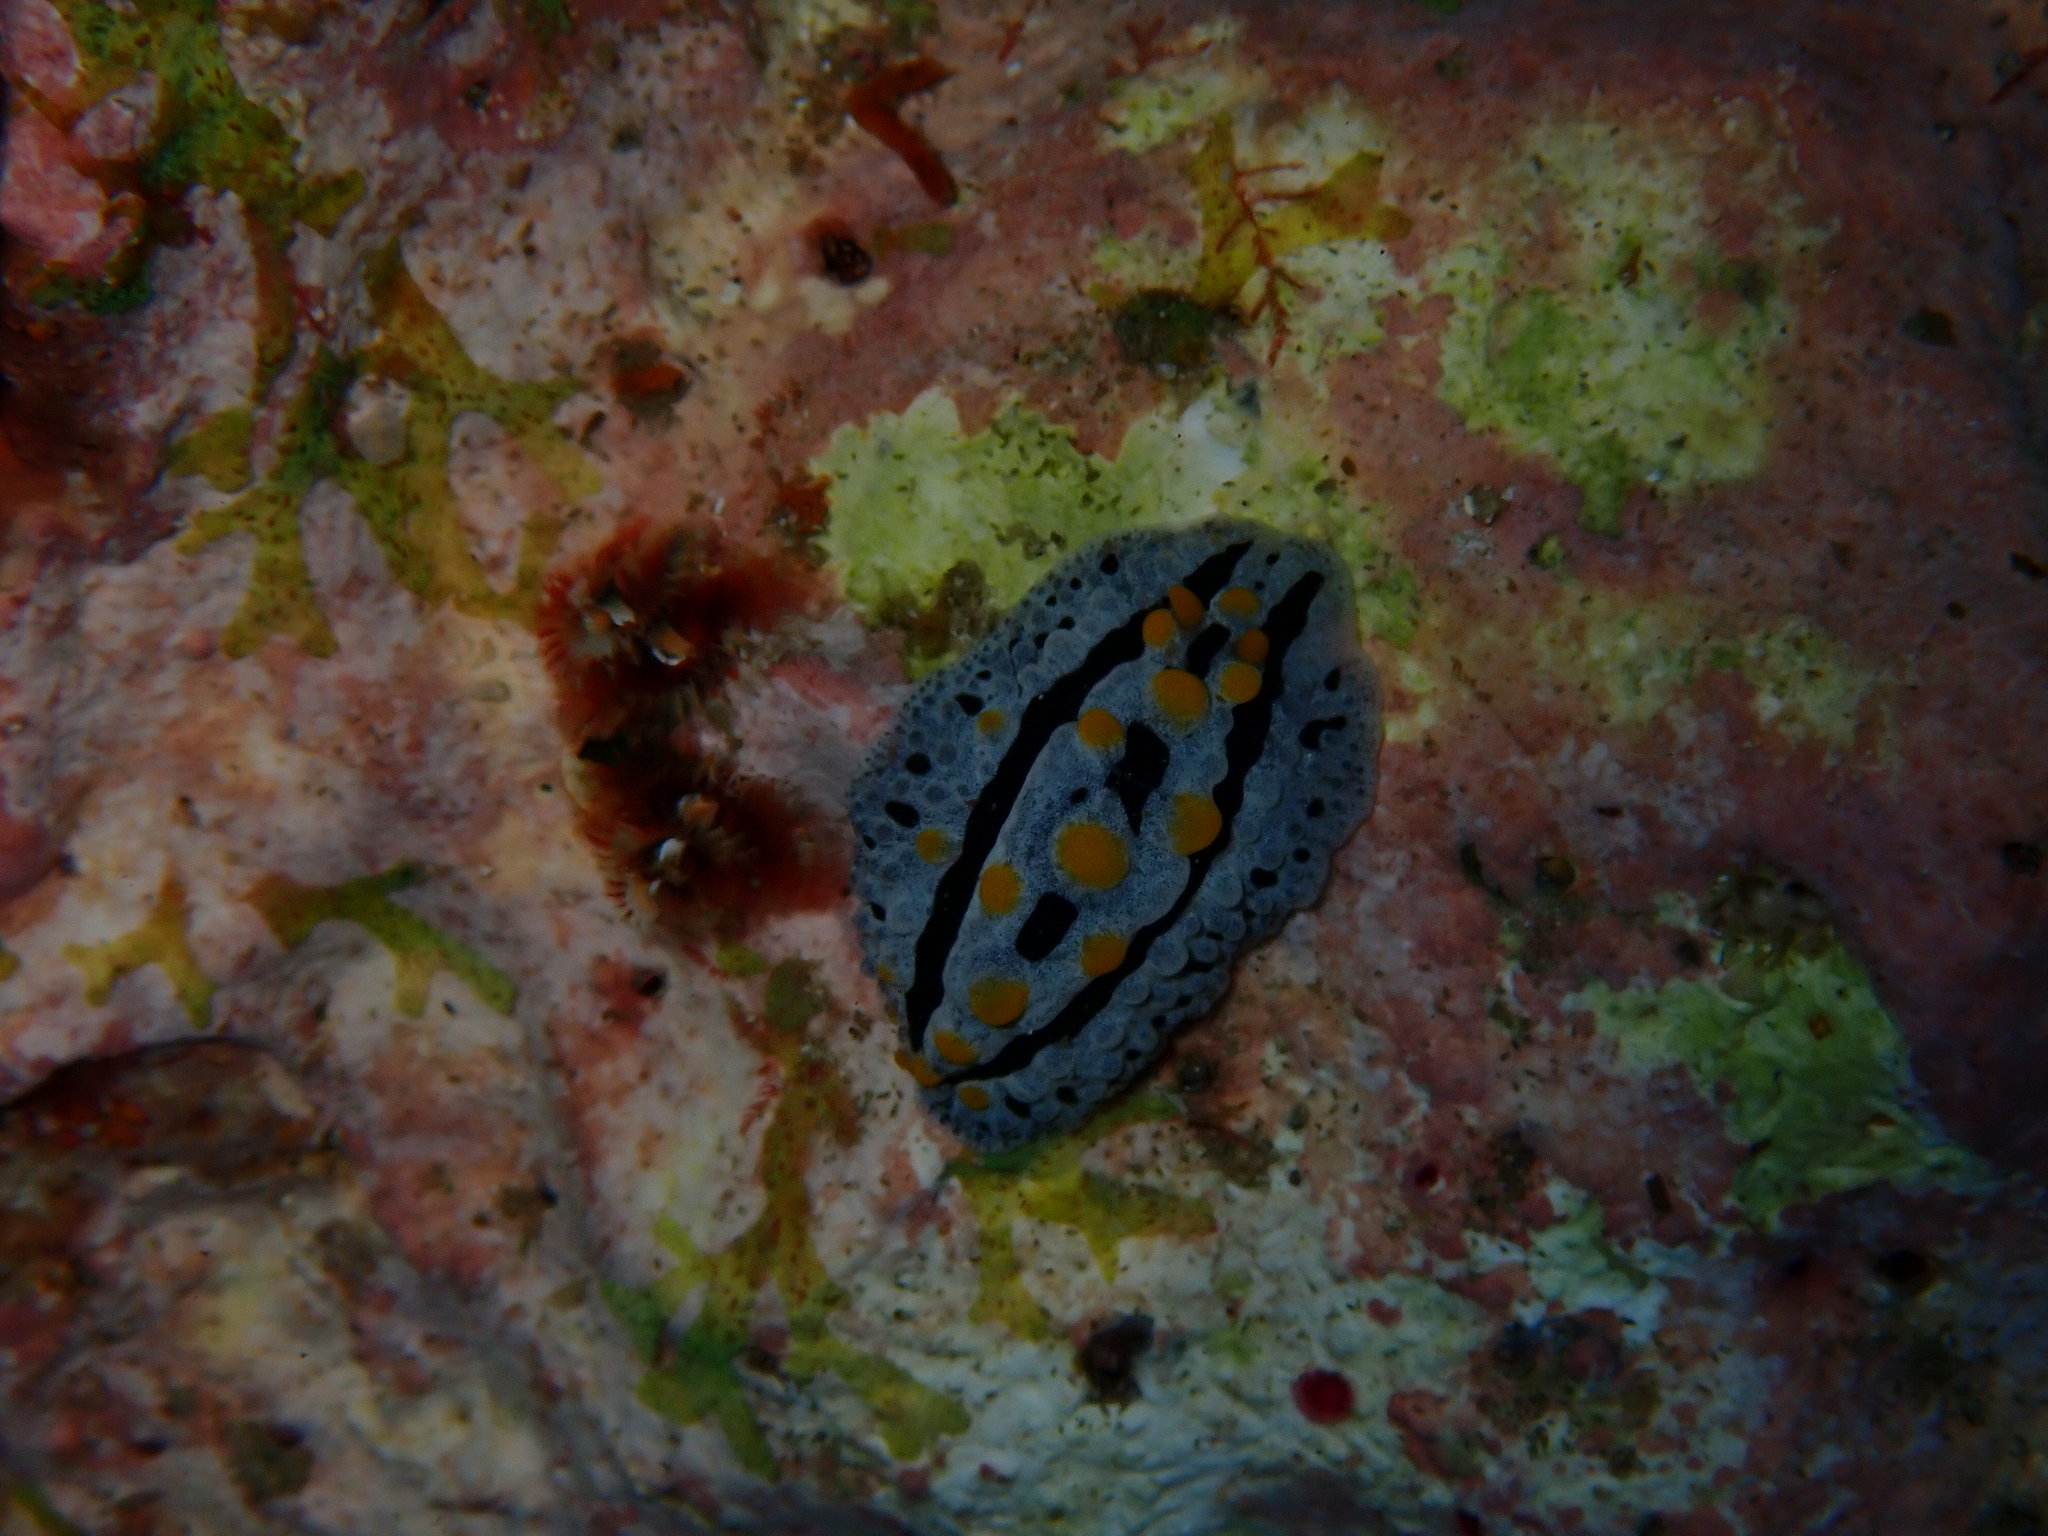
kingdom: Animalia
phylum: Mollusca
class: Gastropoda
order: Nudibranchia
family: Phyllidiidae
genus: Phyllidia
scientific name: Phyllidia coelestis
